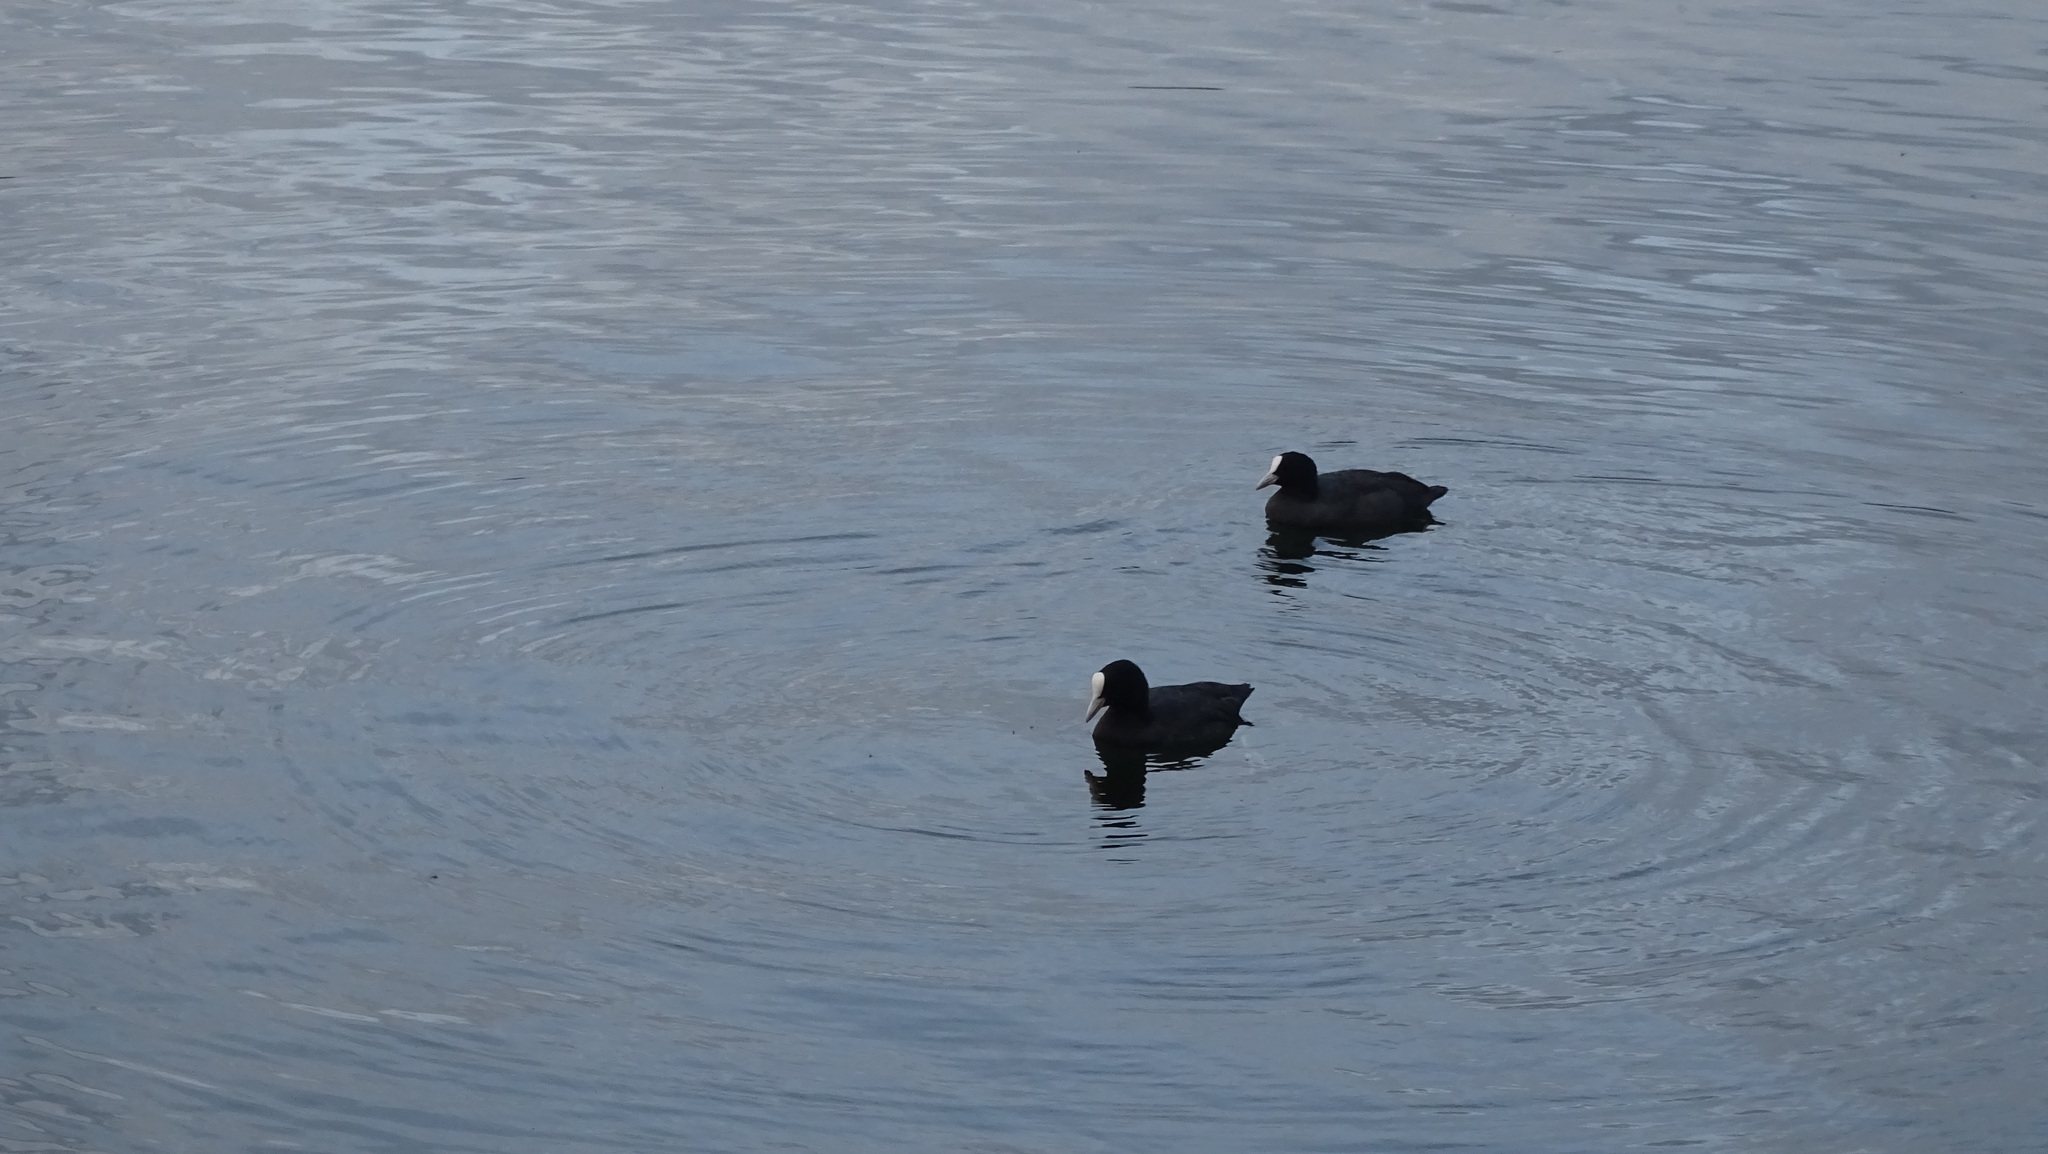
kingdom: Animalia
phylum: Chordata
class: Aves
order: Gruiformes
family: Rallidae
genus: Fulica
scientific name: Fulica atra
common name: Eurasian coot
